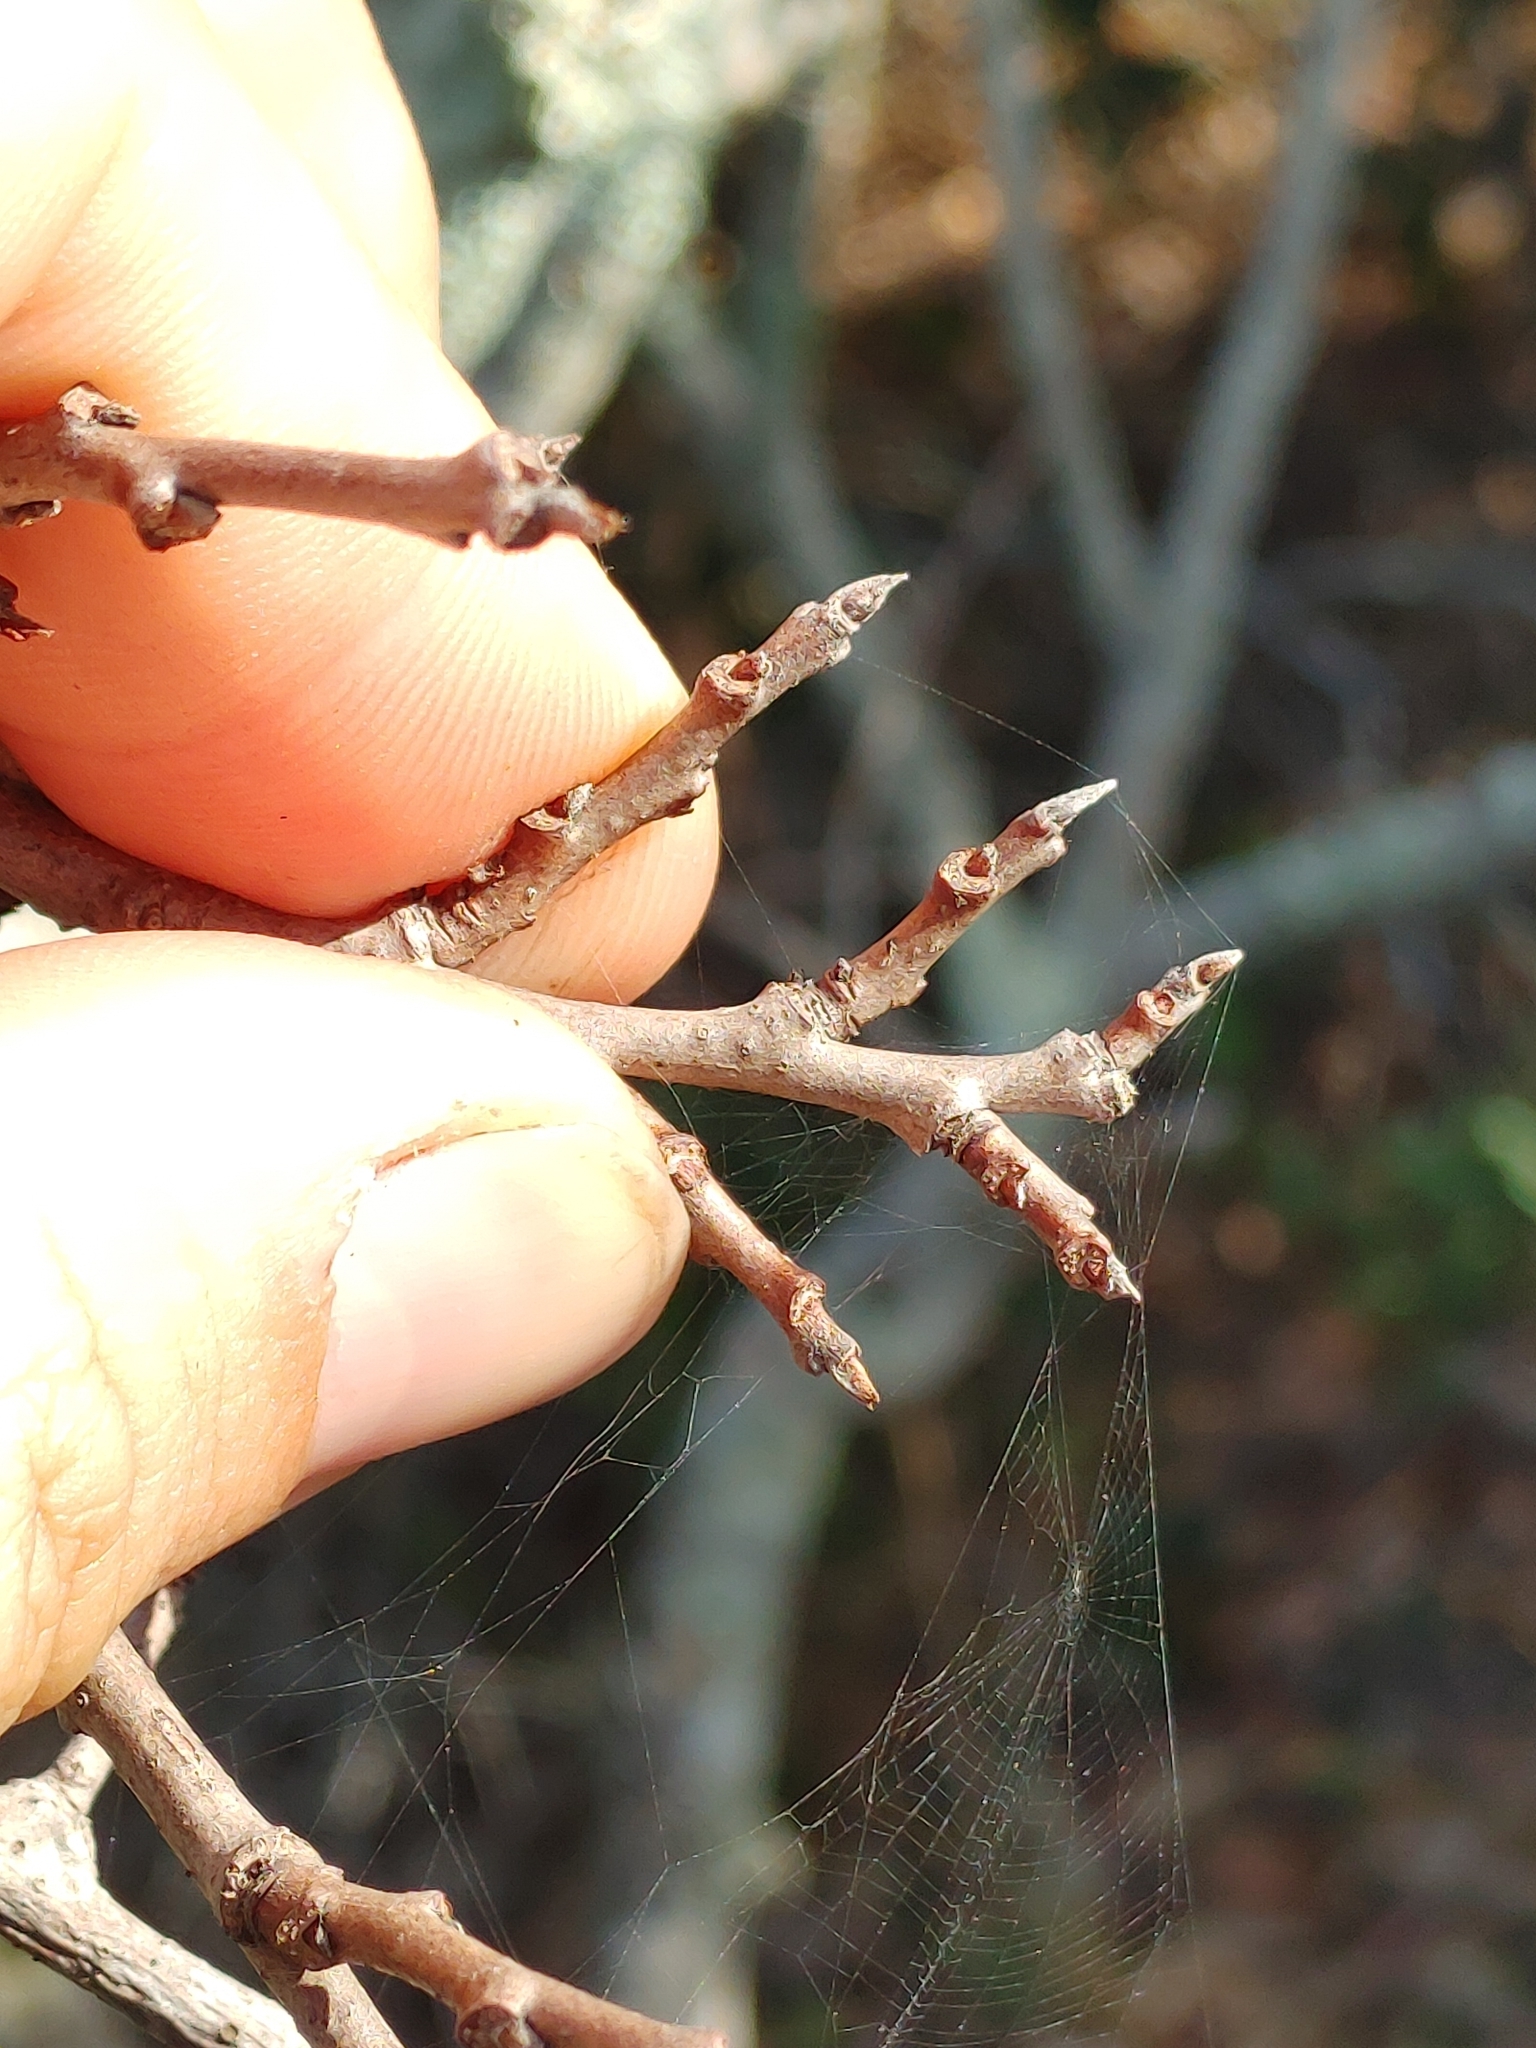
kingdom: Plantae
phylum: Tracheophyta
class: Magnoliopsida
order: Magnoliales
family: Annonaceae
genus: Asimina
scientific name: Asimina tetramera
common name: Four-petal pawpaw
